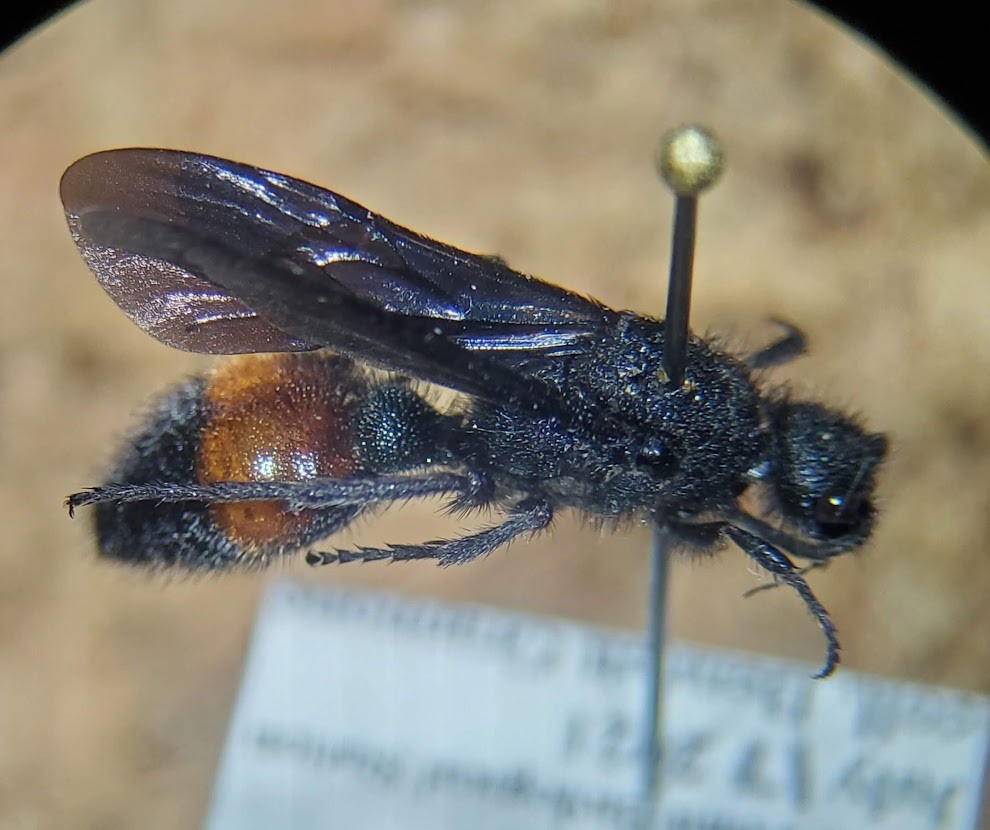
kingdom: Animalia
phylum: Arthropoda
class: Insecta
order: Hymenoptera
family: Mutillidae
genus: Dasymutilla
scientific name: Dasymutilla
